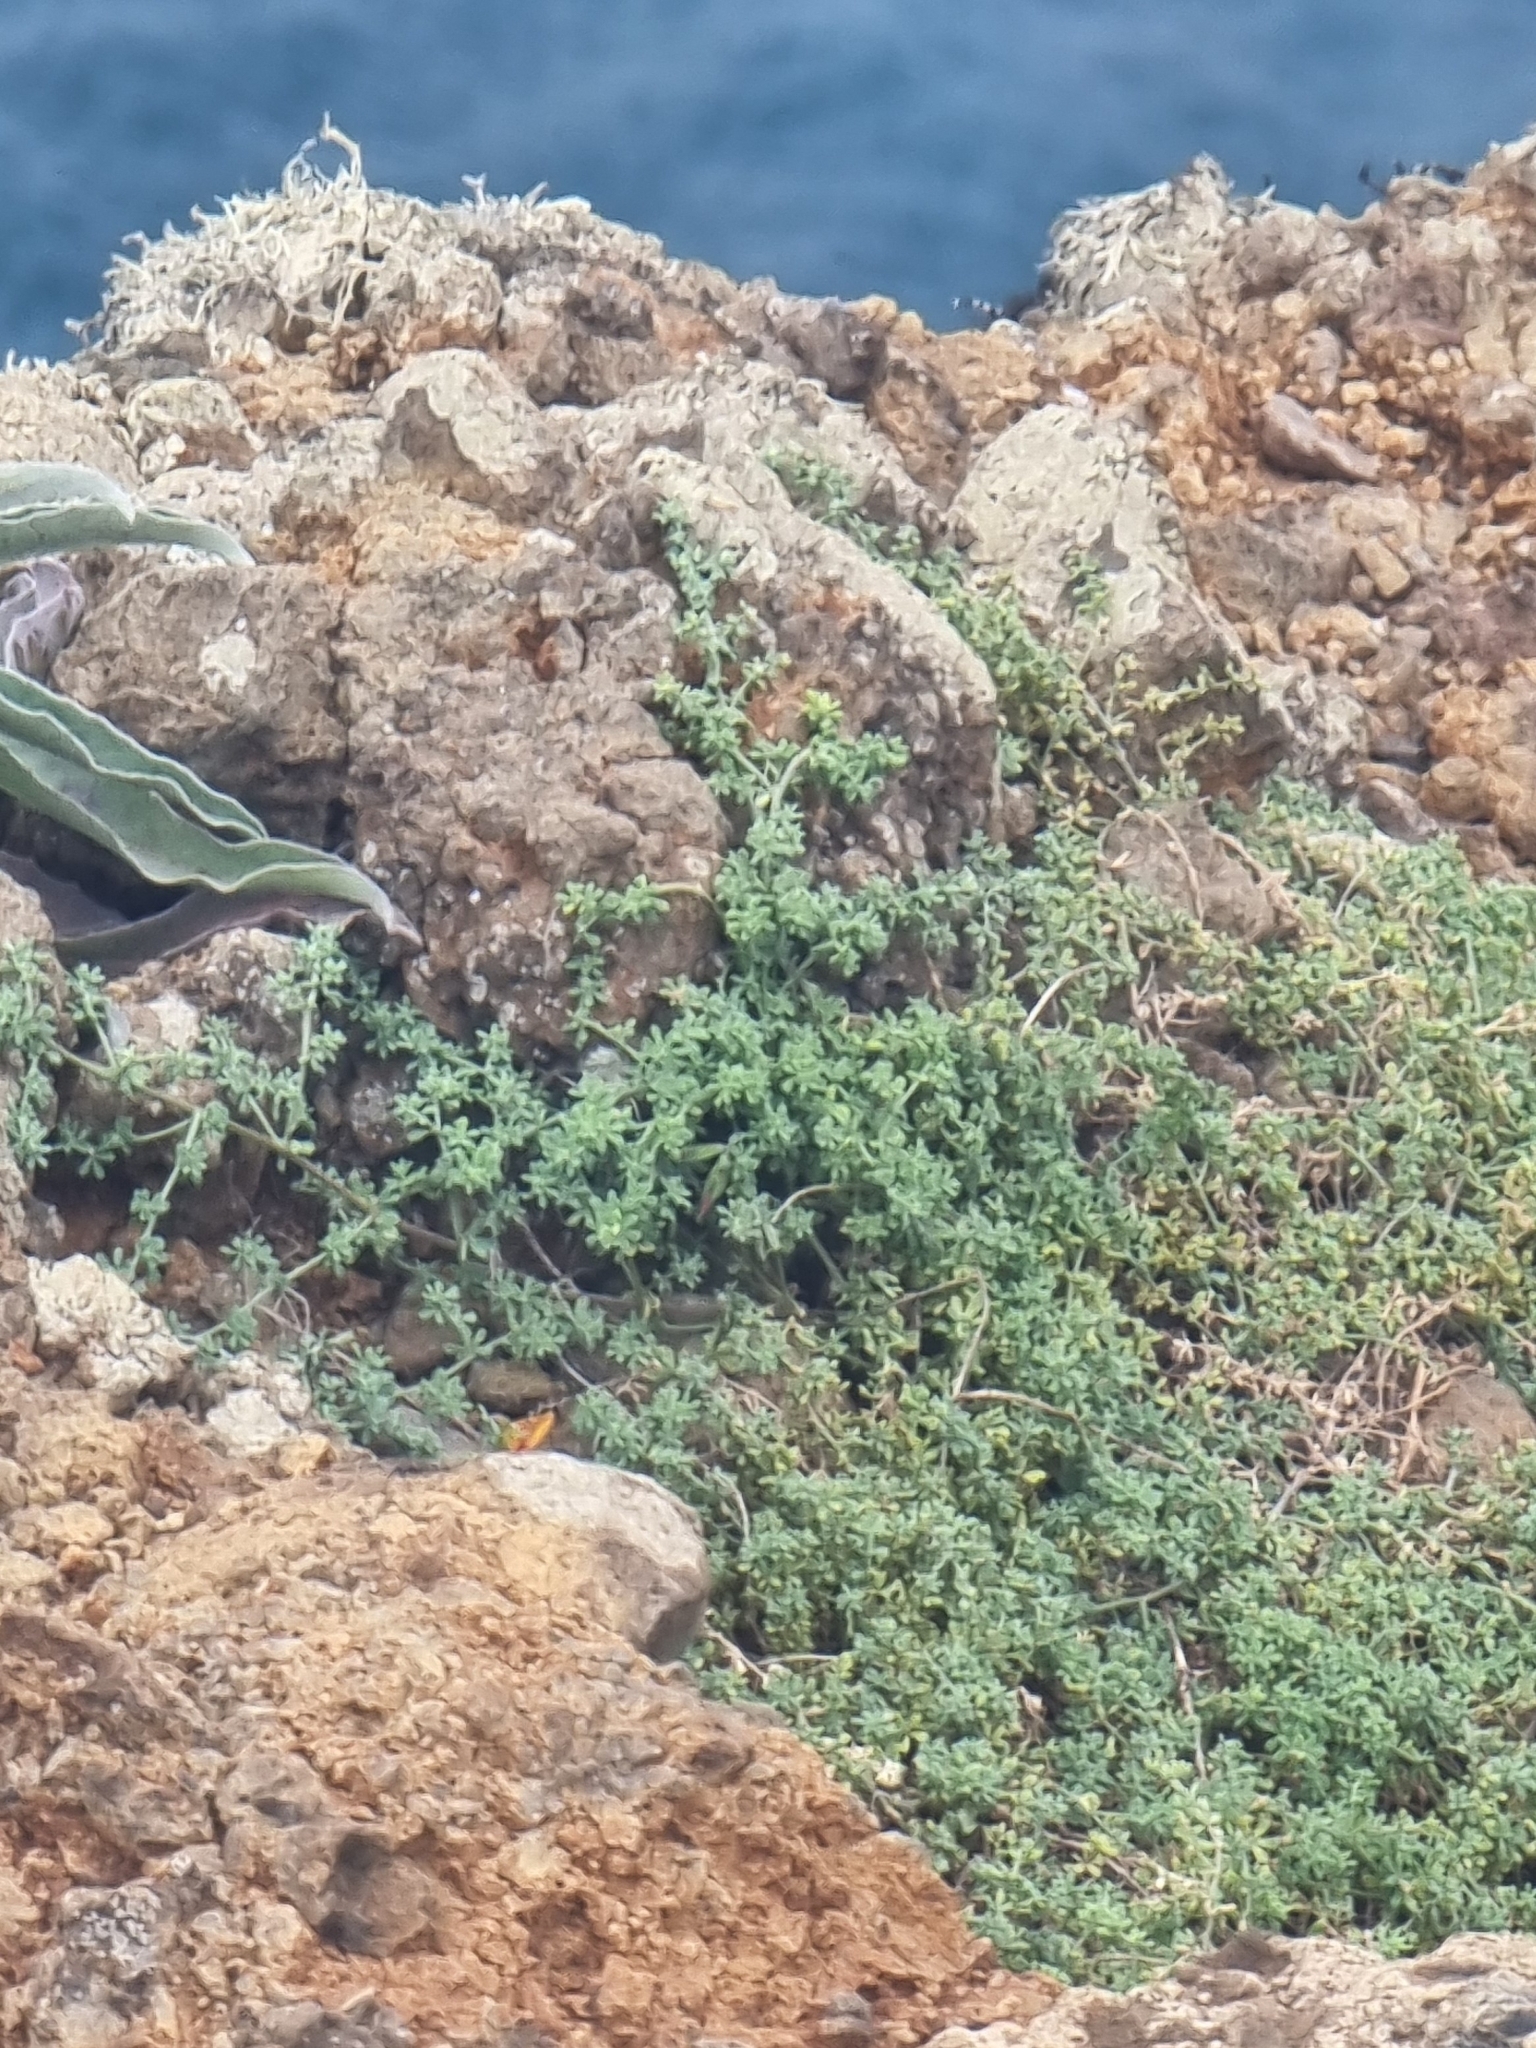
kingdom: Plantae
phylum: Tracheophyta
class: Magnoliopsida
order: Fabales
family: Fabaceae
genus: Lotus
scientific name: Lotus glaucus
